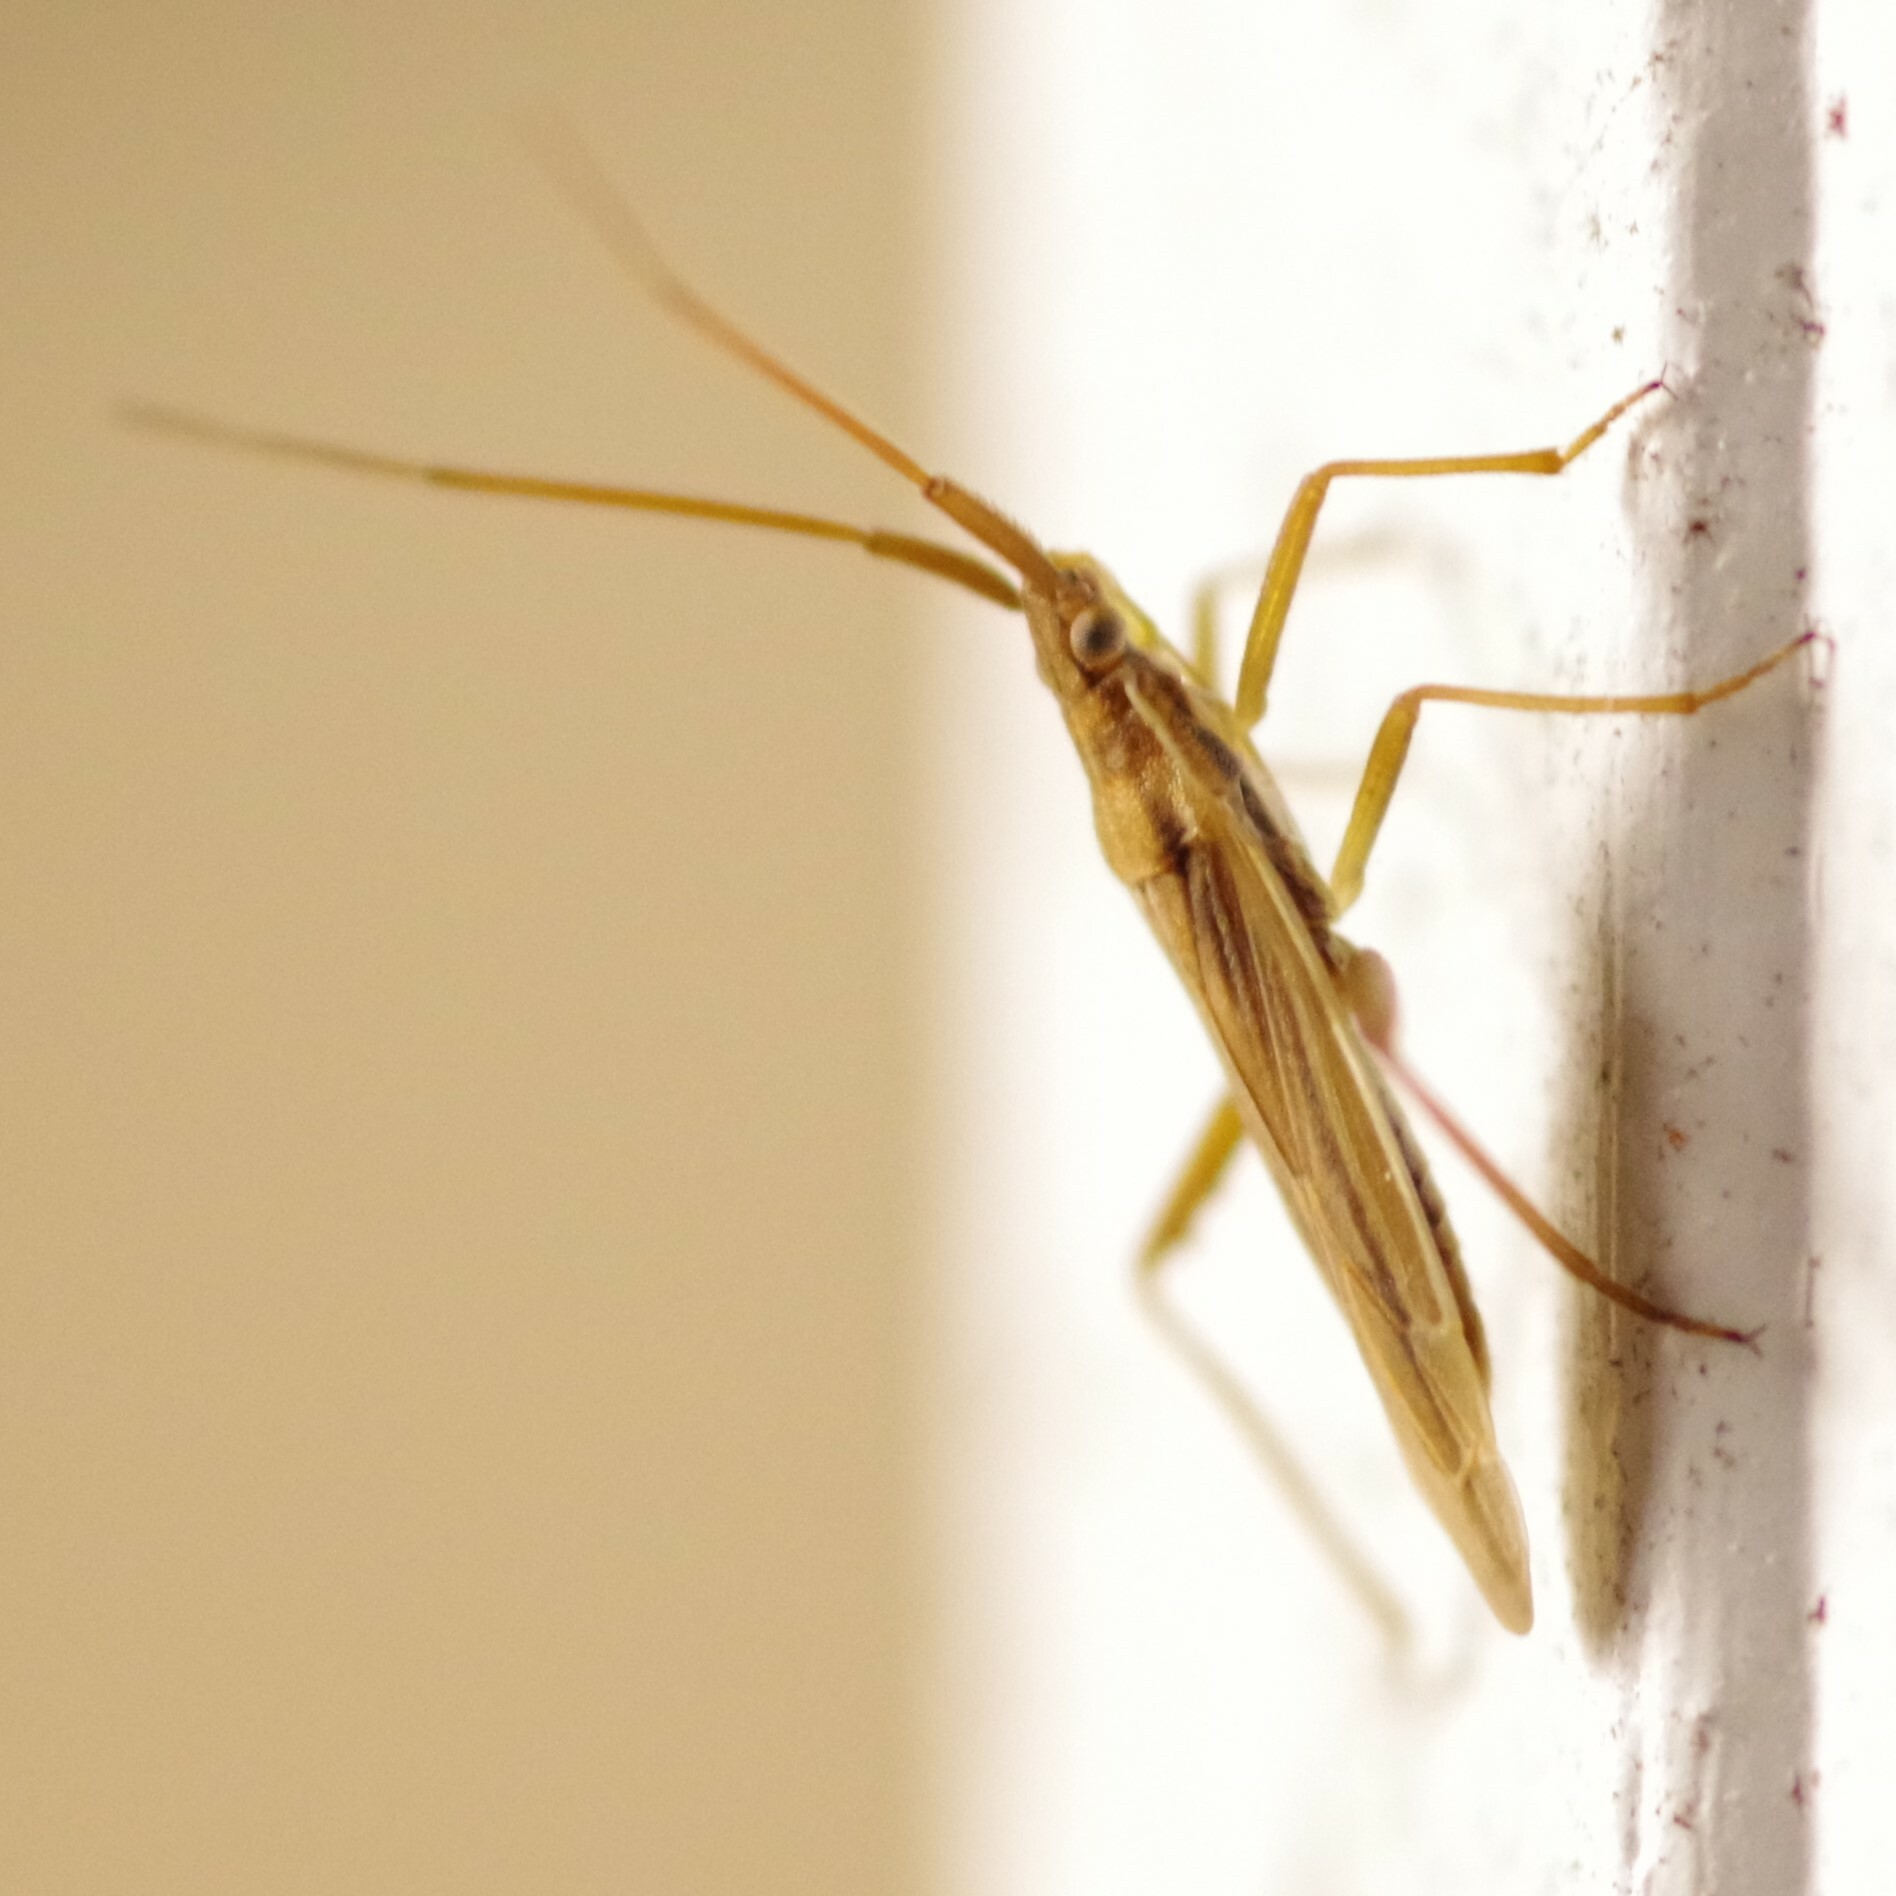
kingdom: Animalia
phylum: Arthropoda
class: Insecta
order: Hemiptera
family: Miridae
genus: Stenodema
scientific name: Stenodema trispinosa
